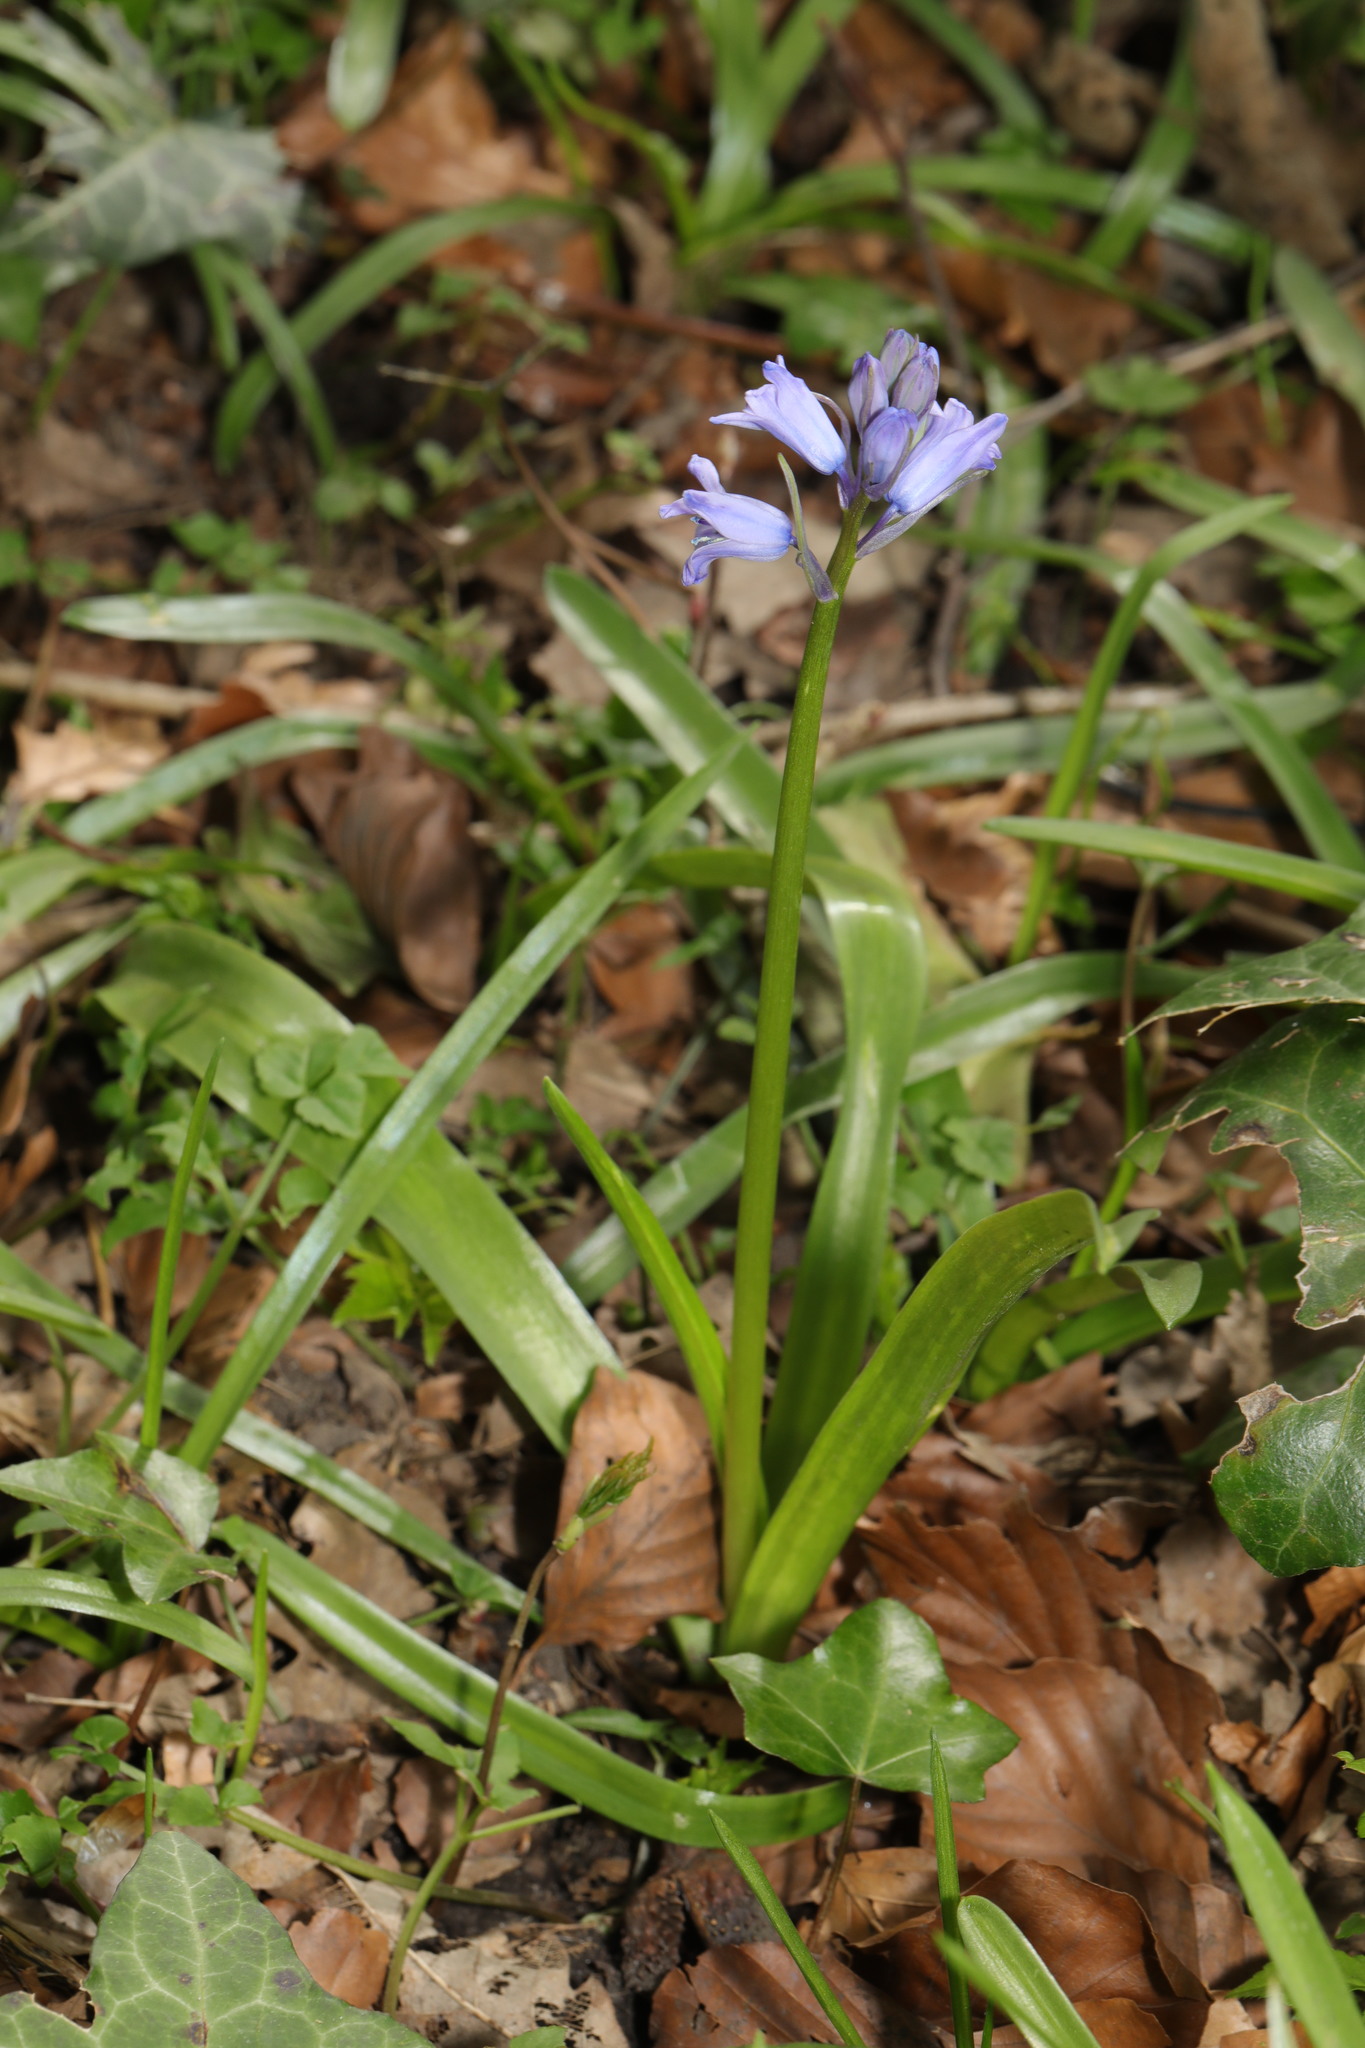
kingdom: Plantae
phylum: Tracheophyta
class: Liliopsida
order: Asparagales
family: Asparagaceae
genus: Hyacinthoides
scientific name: Hyacinthoides hispanica
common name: Spanish bluebell
